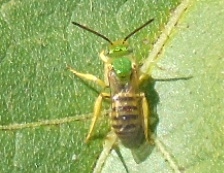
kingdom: Animalia
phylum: Arthropoda
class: Insecta
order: Hymenoptera
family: Halictidae
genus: Agapostemon
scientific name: Agapostemon
